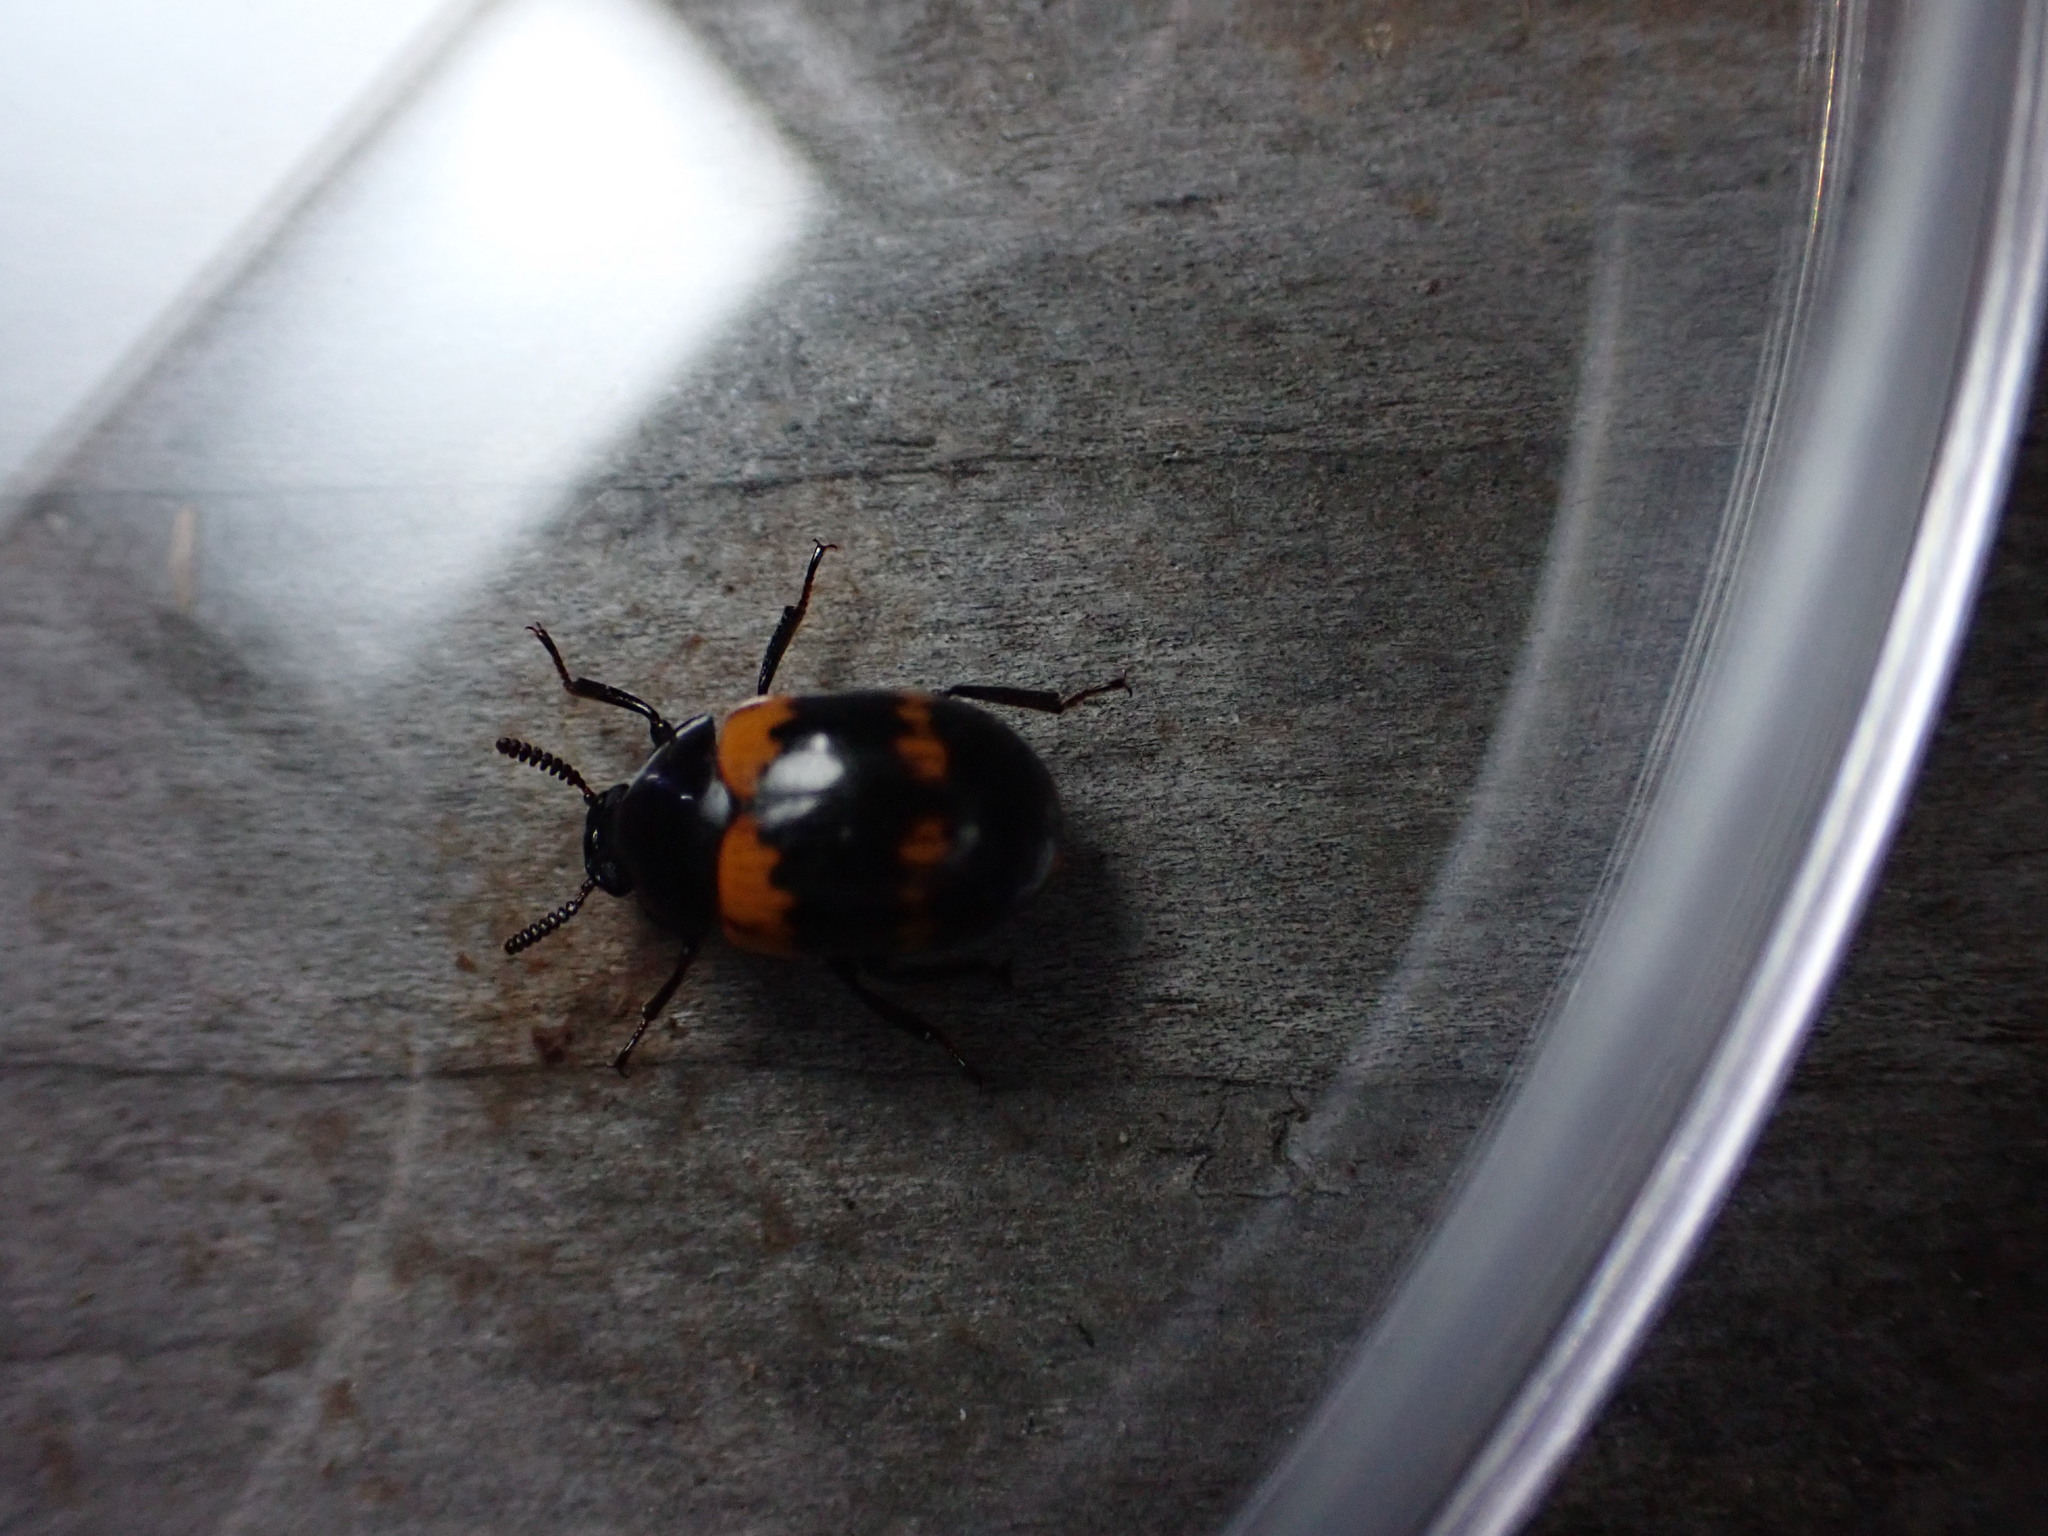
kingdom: Animalia
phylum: Arthropoda
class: Insecta
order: Coleoptera
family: Tenebrionidae
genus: Diaperis
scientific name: Diaperis boleti
